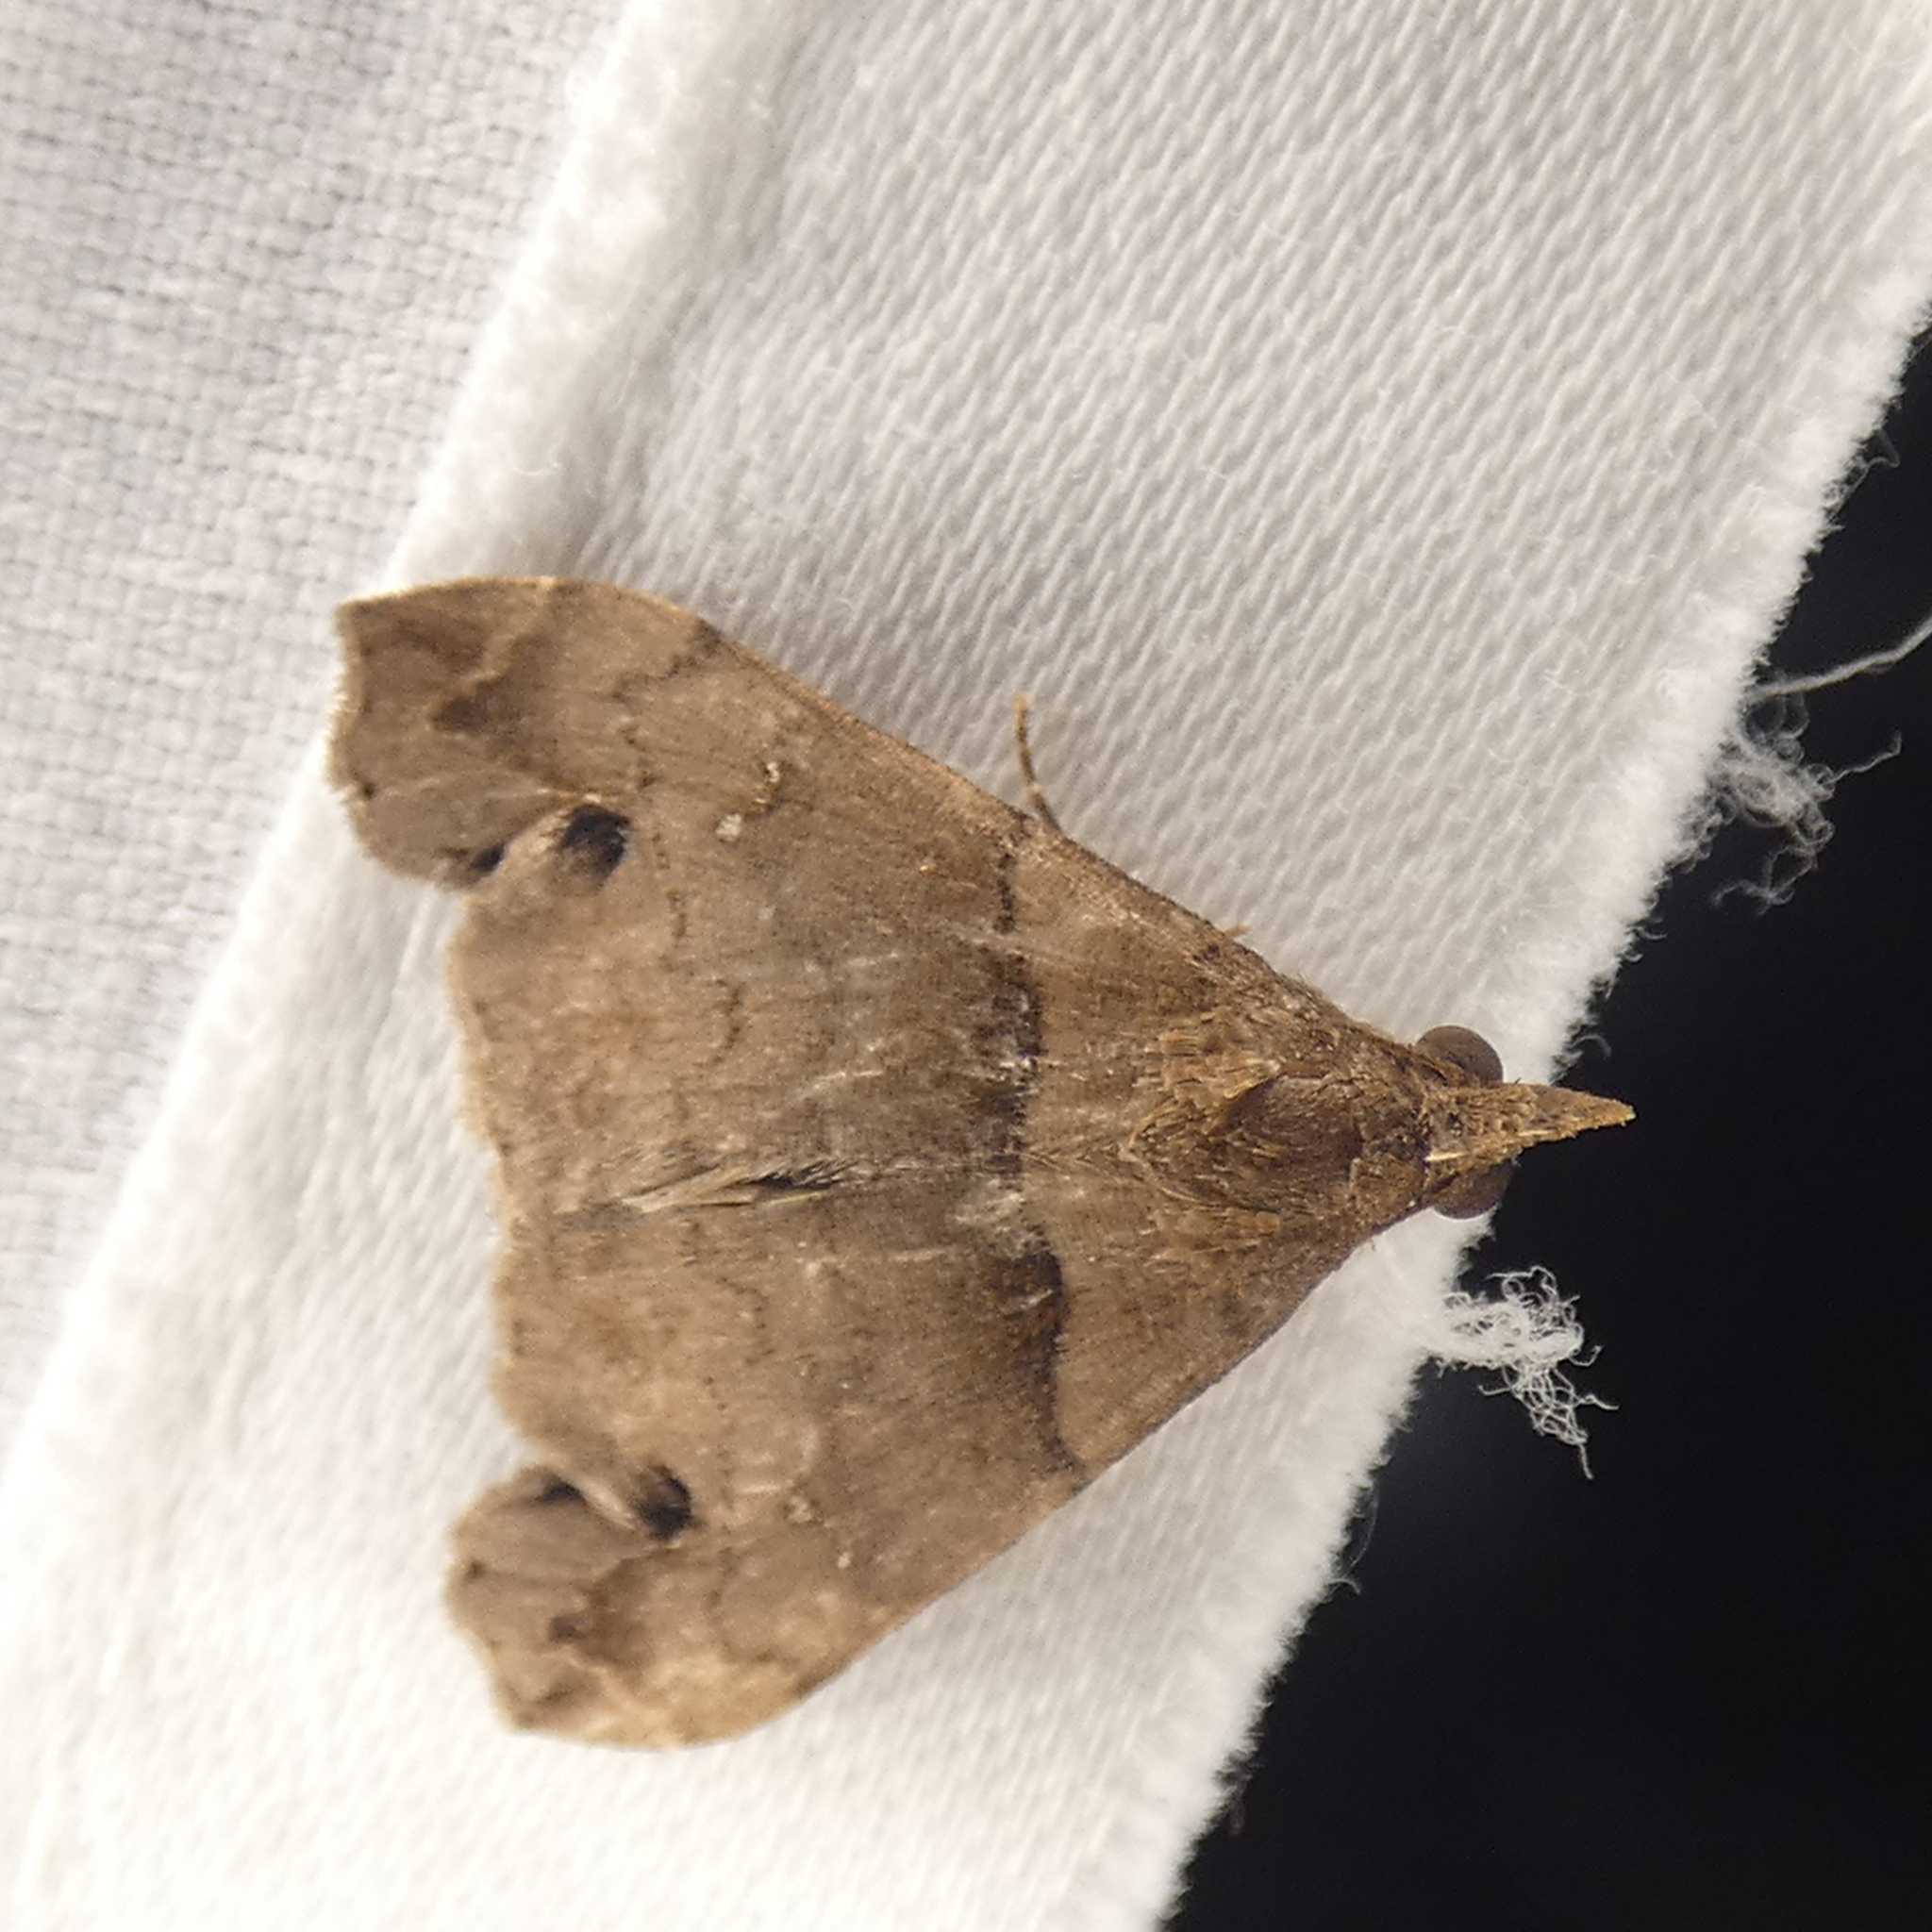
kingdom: Animalia
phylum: Arthropoda
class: Insecta
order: Lepidoptera
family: Erebidae
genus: Lascoria
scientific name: Lascoria ambigualis
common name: Ambiguous moth
